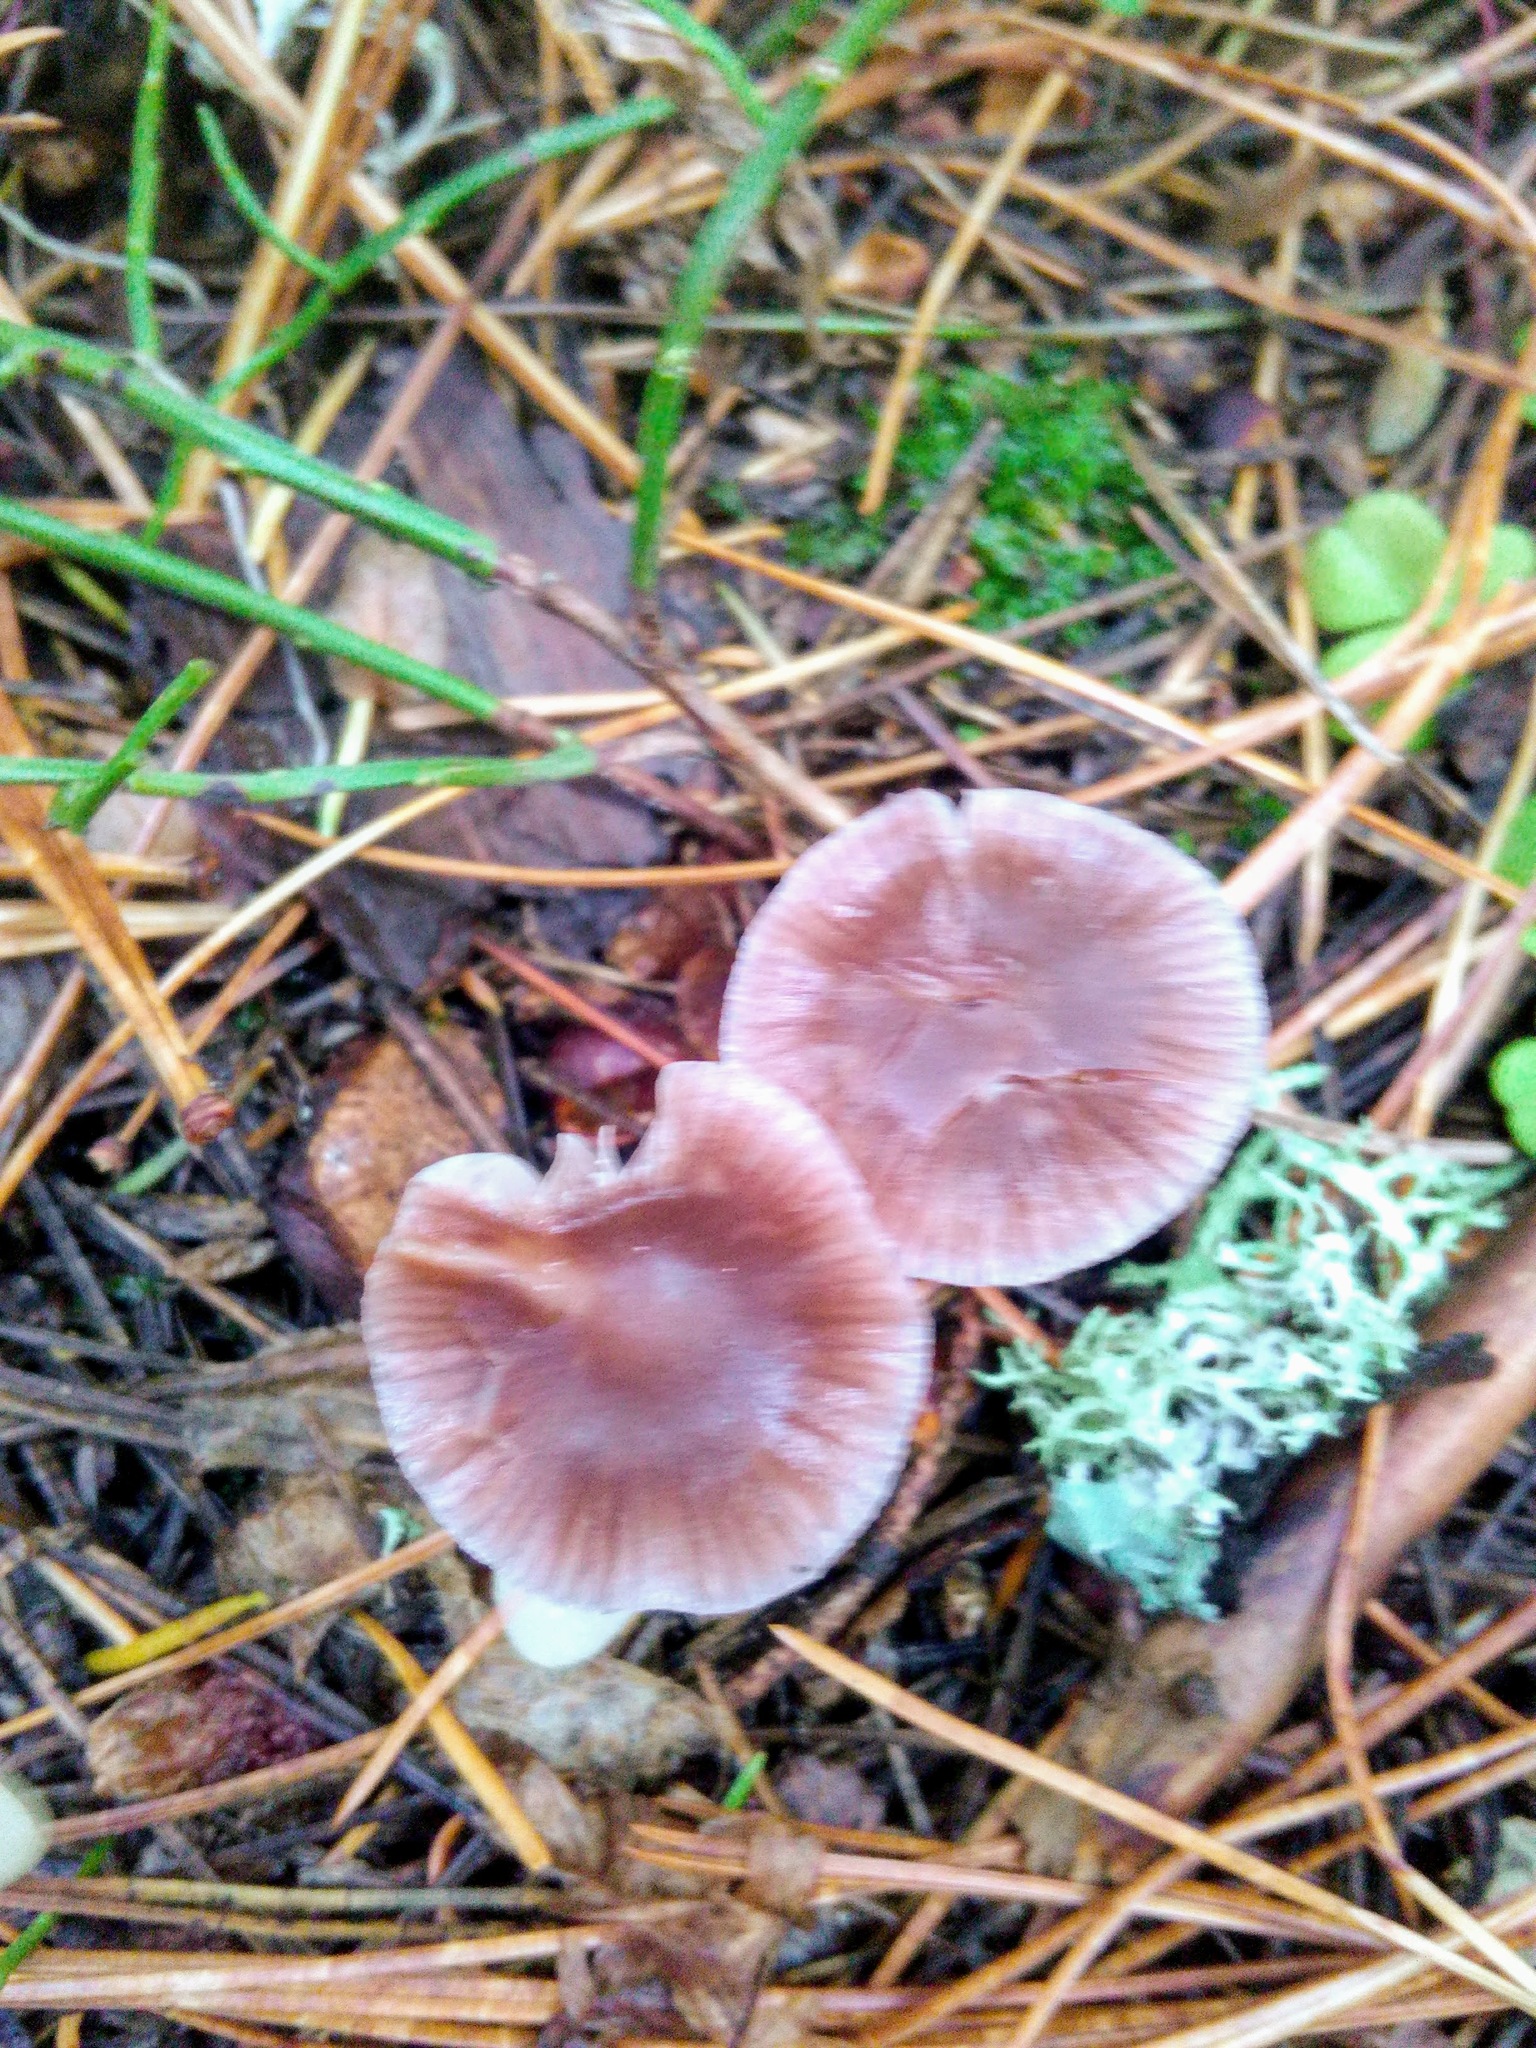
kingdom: Fungi
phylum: Basidiomycota
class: Agaricomycetes
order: Agaricales
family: Mycenaceae
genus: Mycena
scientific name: Mycena pura
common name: Lilac bonnet
